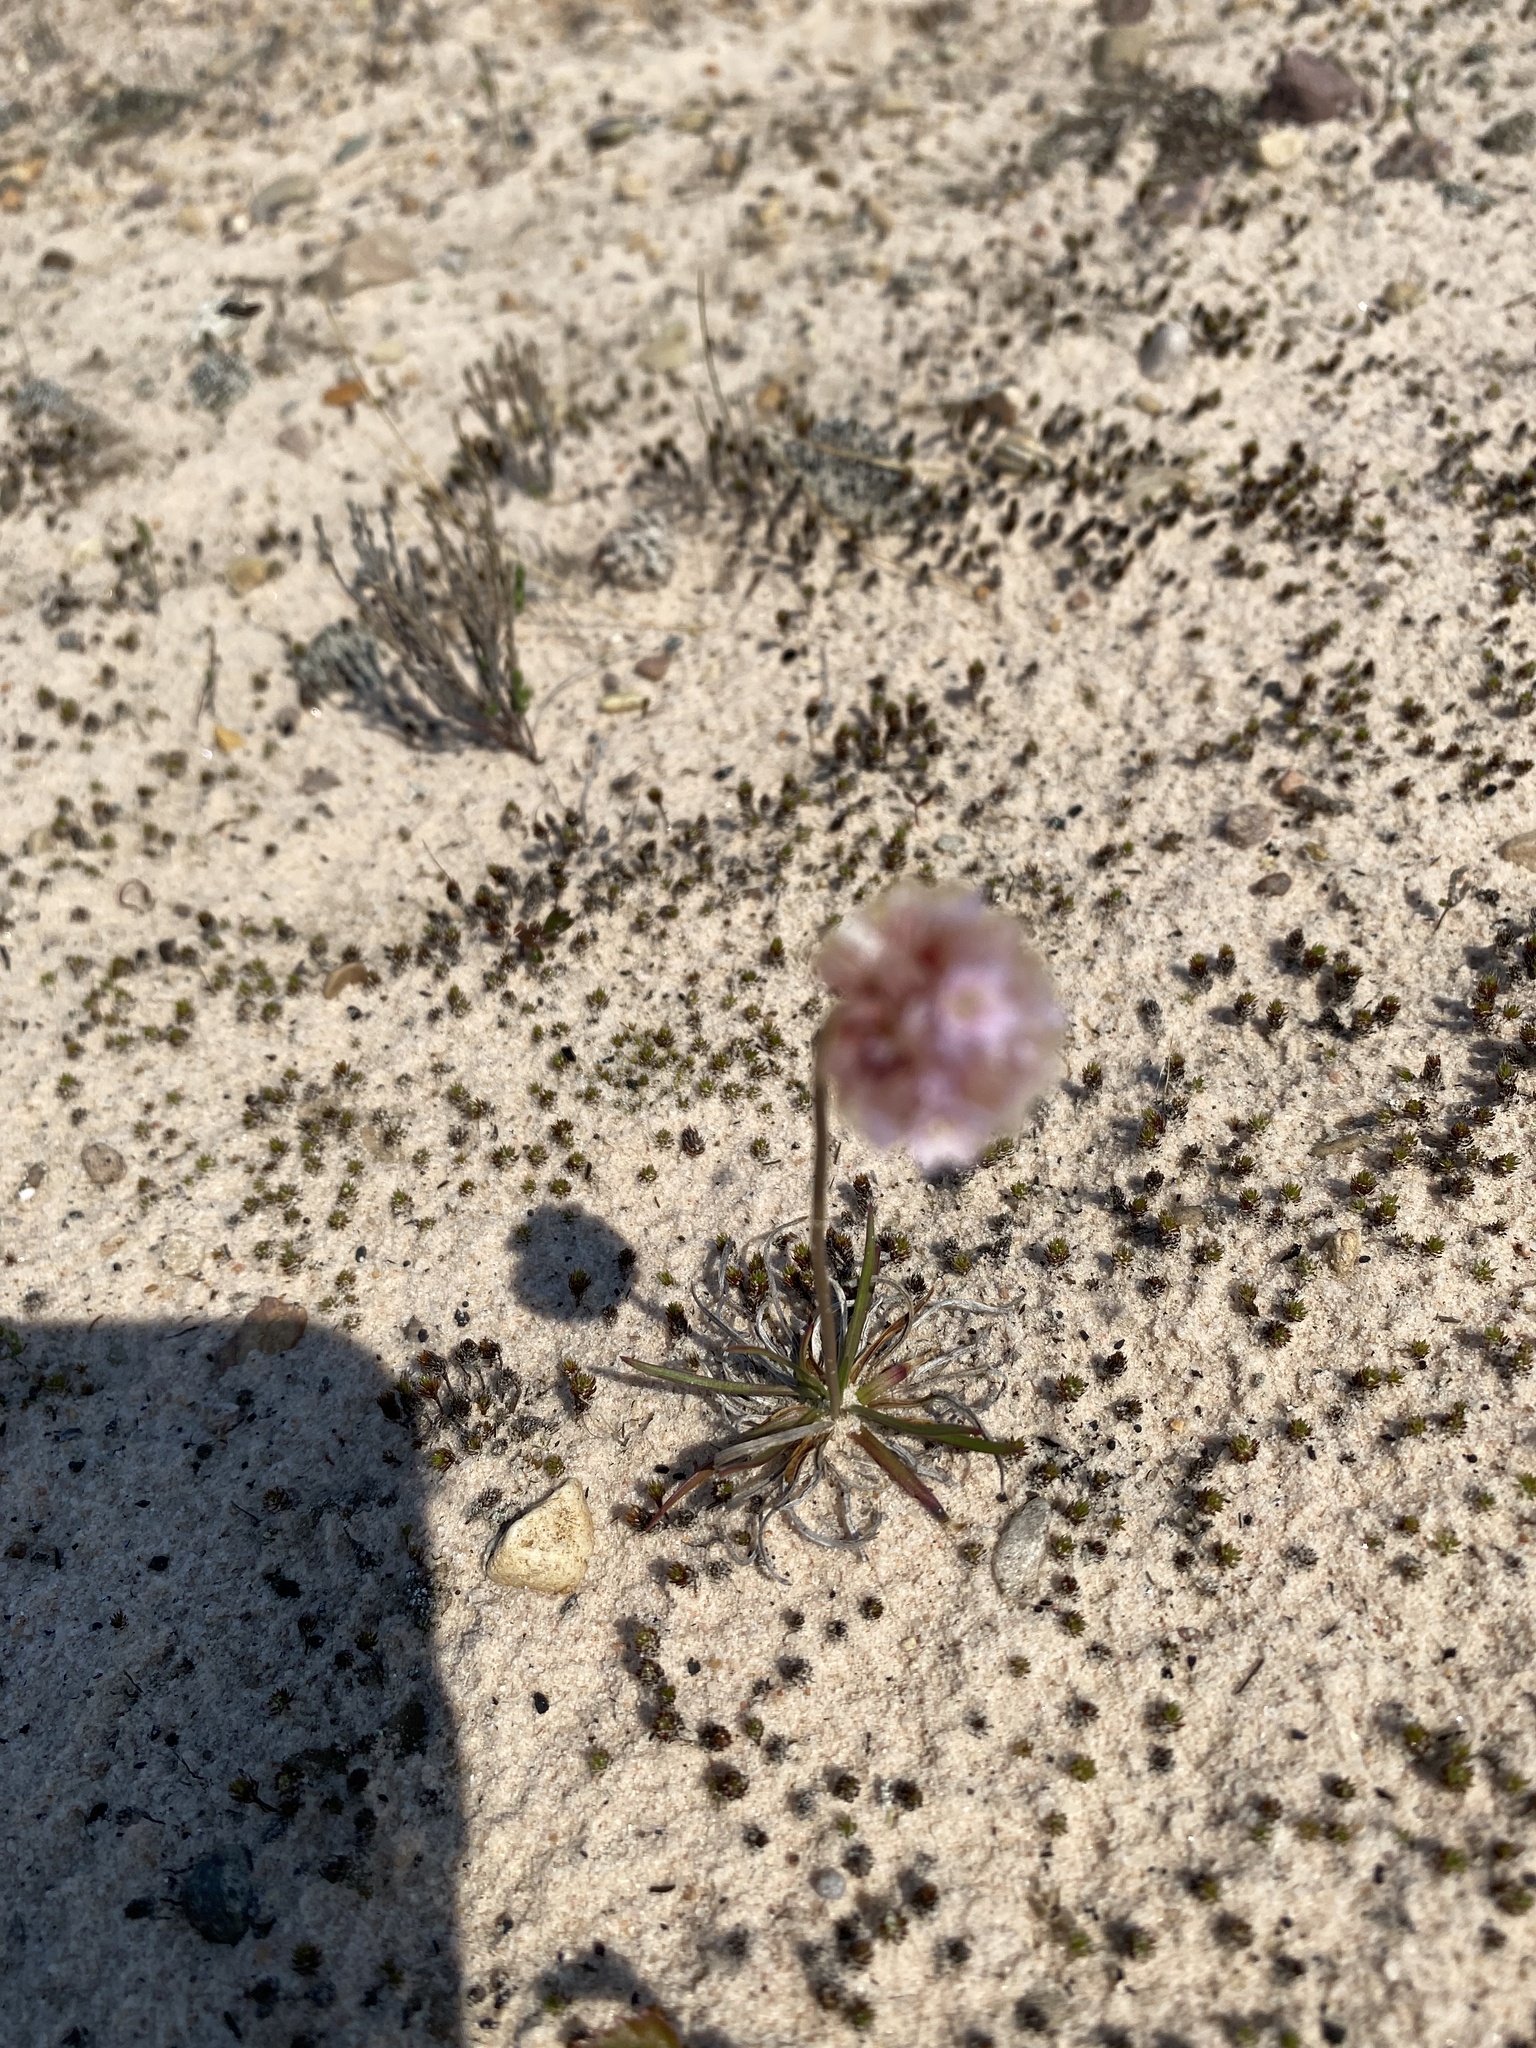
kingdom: Plantae
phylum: Tracheophyta
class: Magnoliopsida
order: Caryophyllales
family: Plumbaginaceae
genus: Armeria
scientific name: Armeria maritima
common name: Thrift
